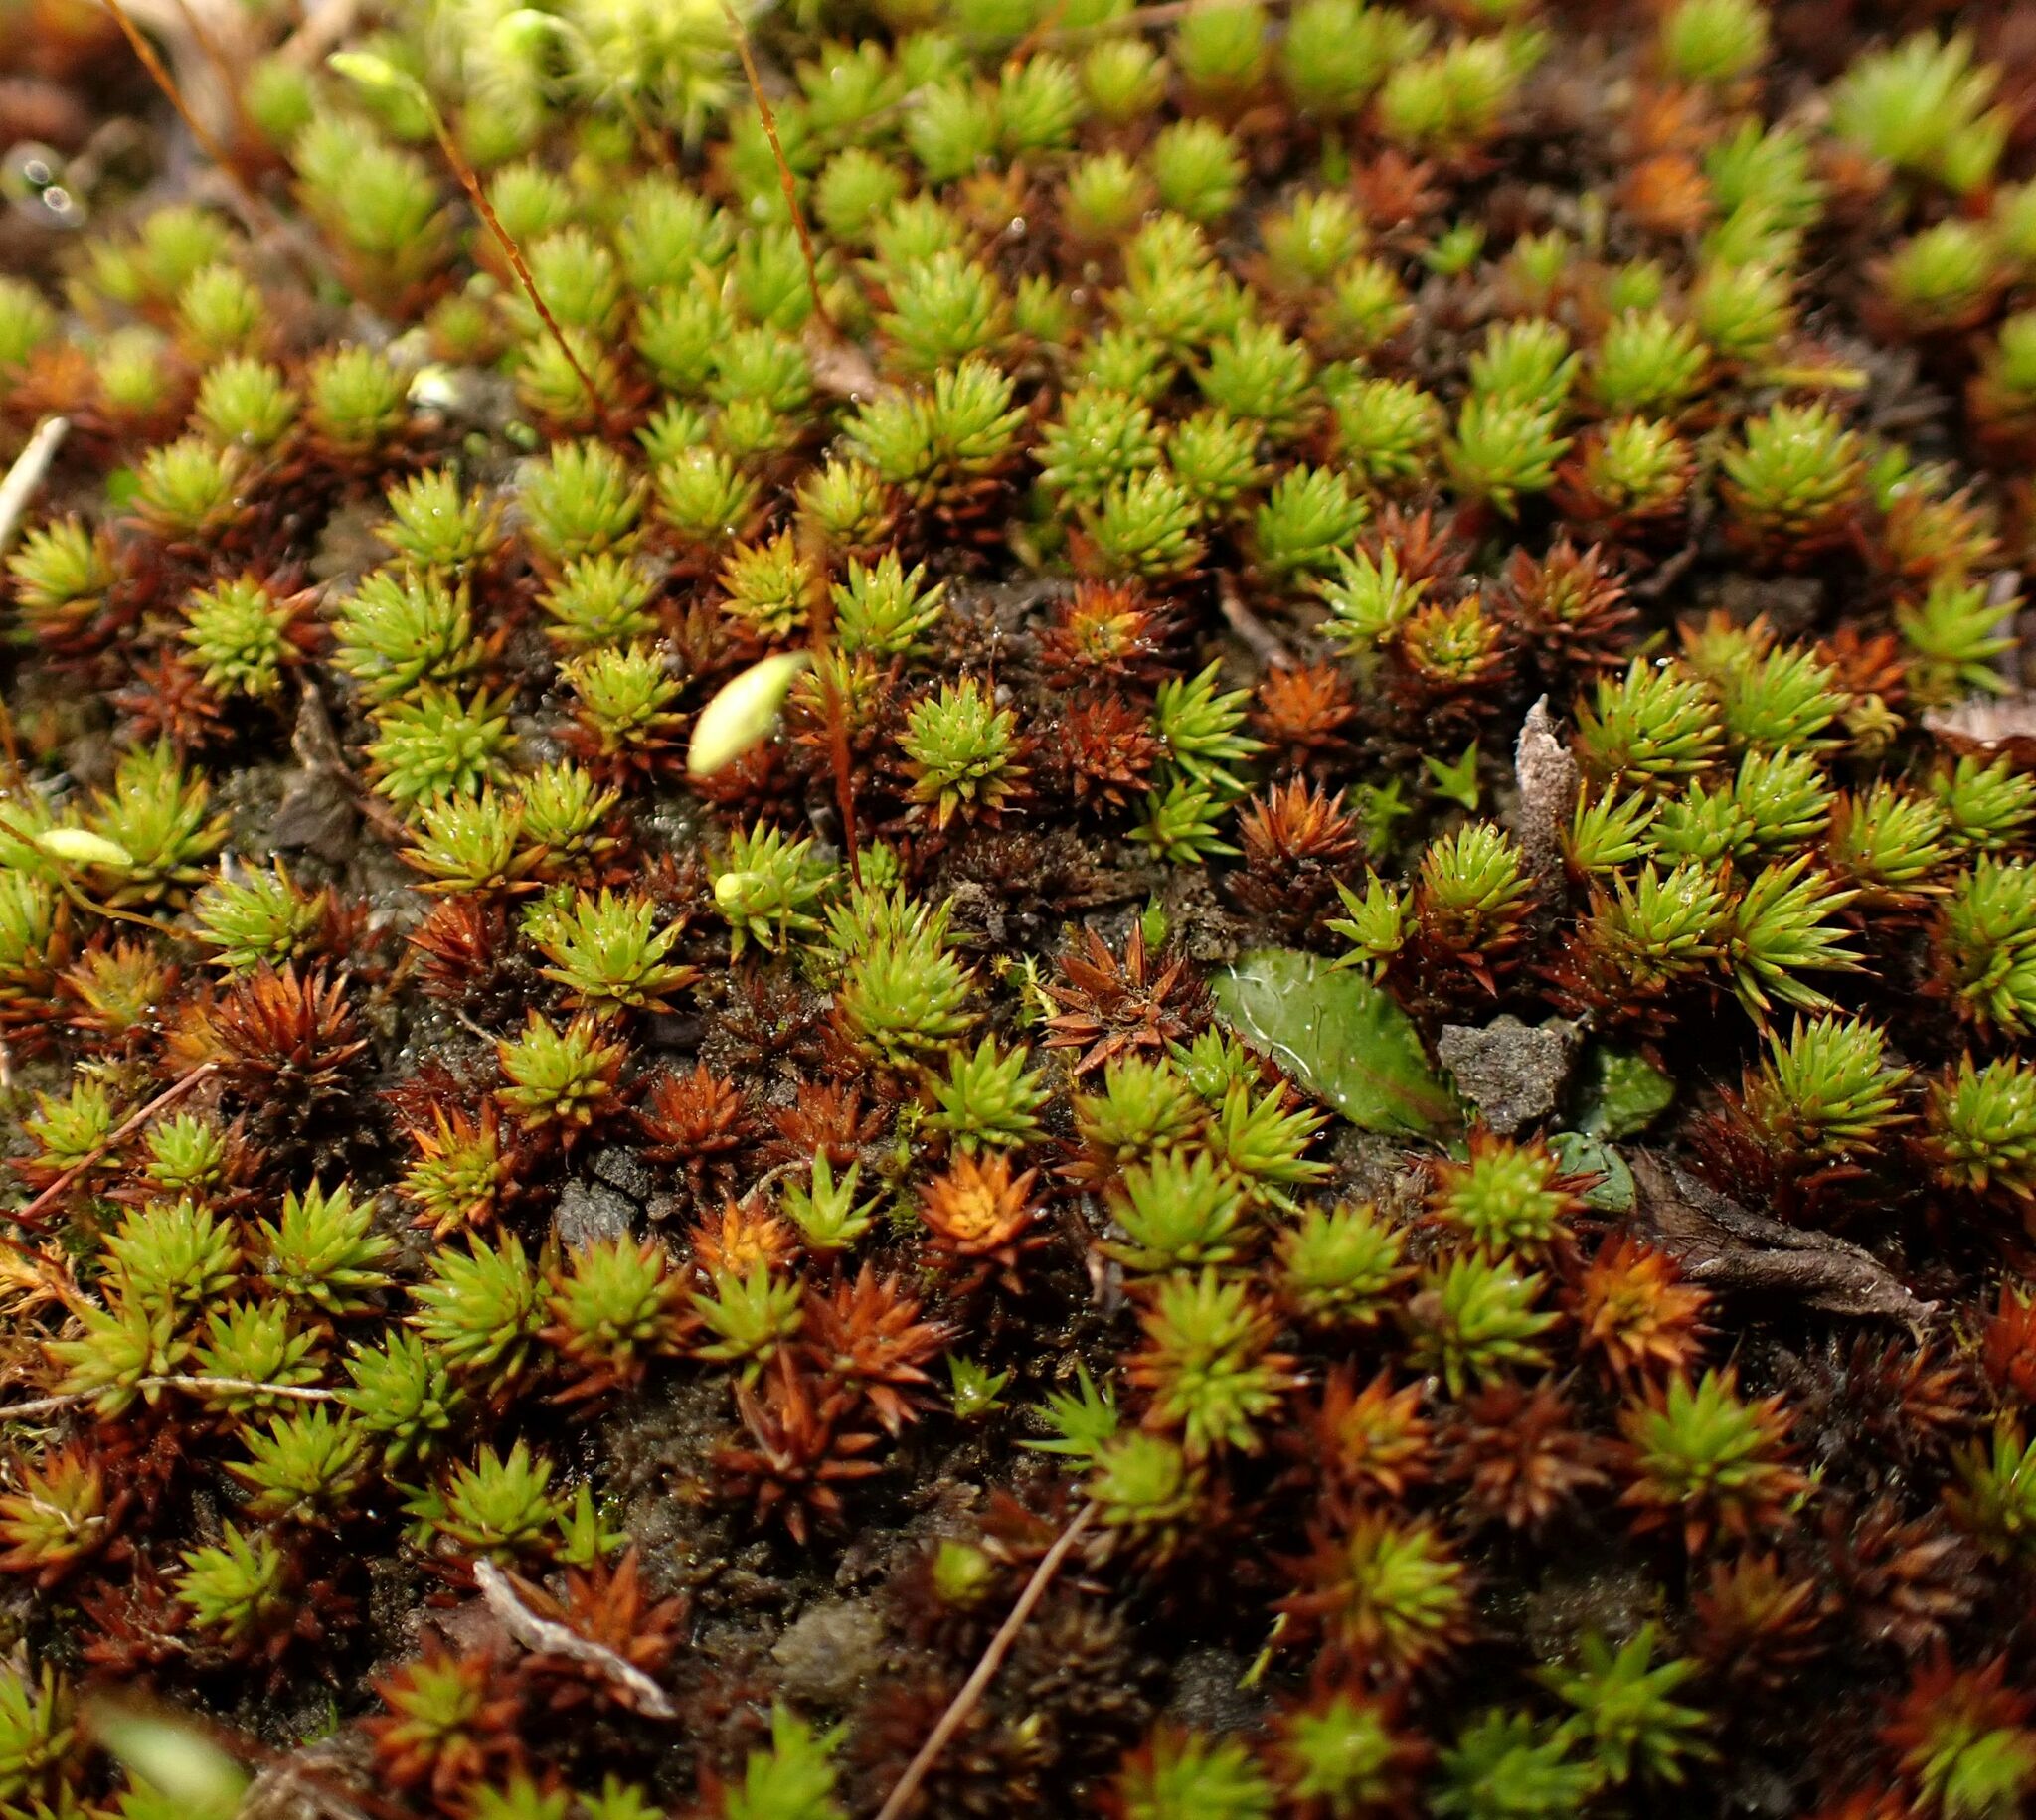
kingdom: Plantae
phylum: Bryophyta
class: Polytrichopsida
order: Polytrichales
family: Polytrichaceae
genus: Polytrichum
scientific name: Polytrichum piliferum
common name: Bristly haircap
